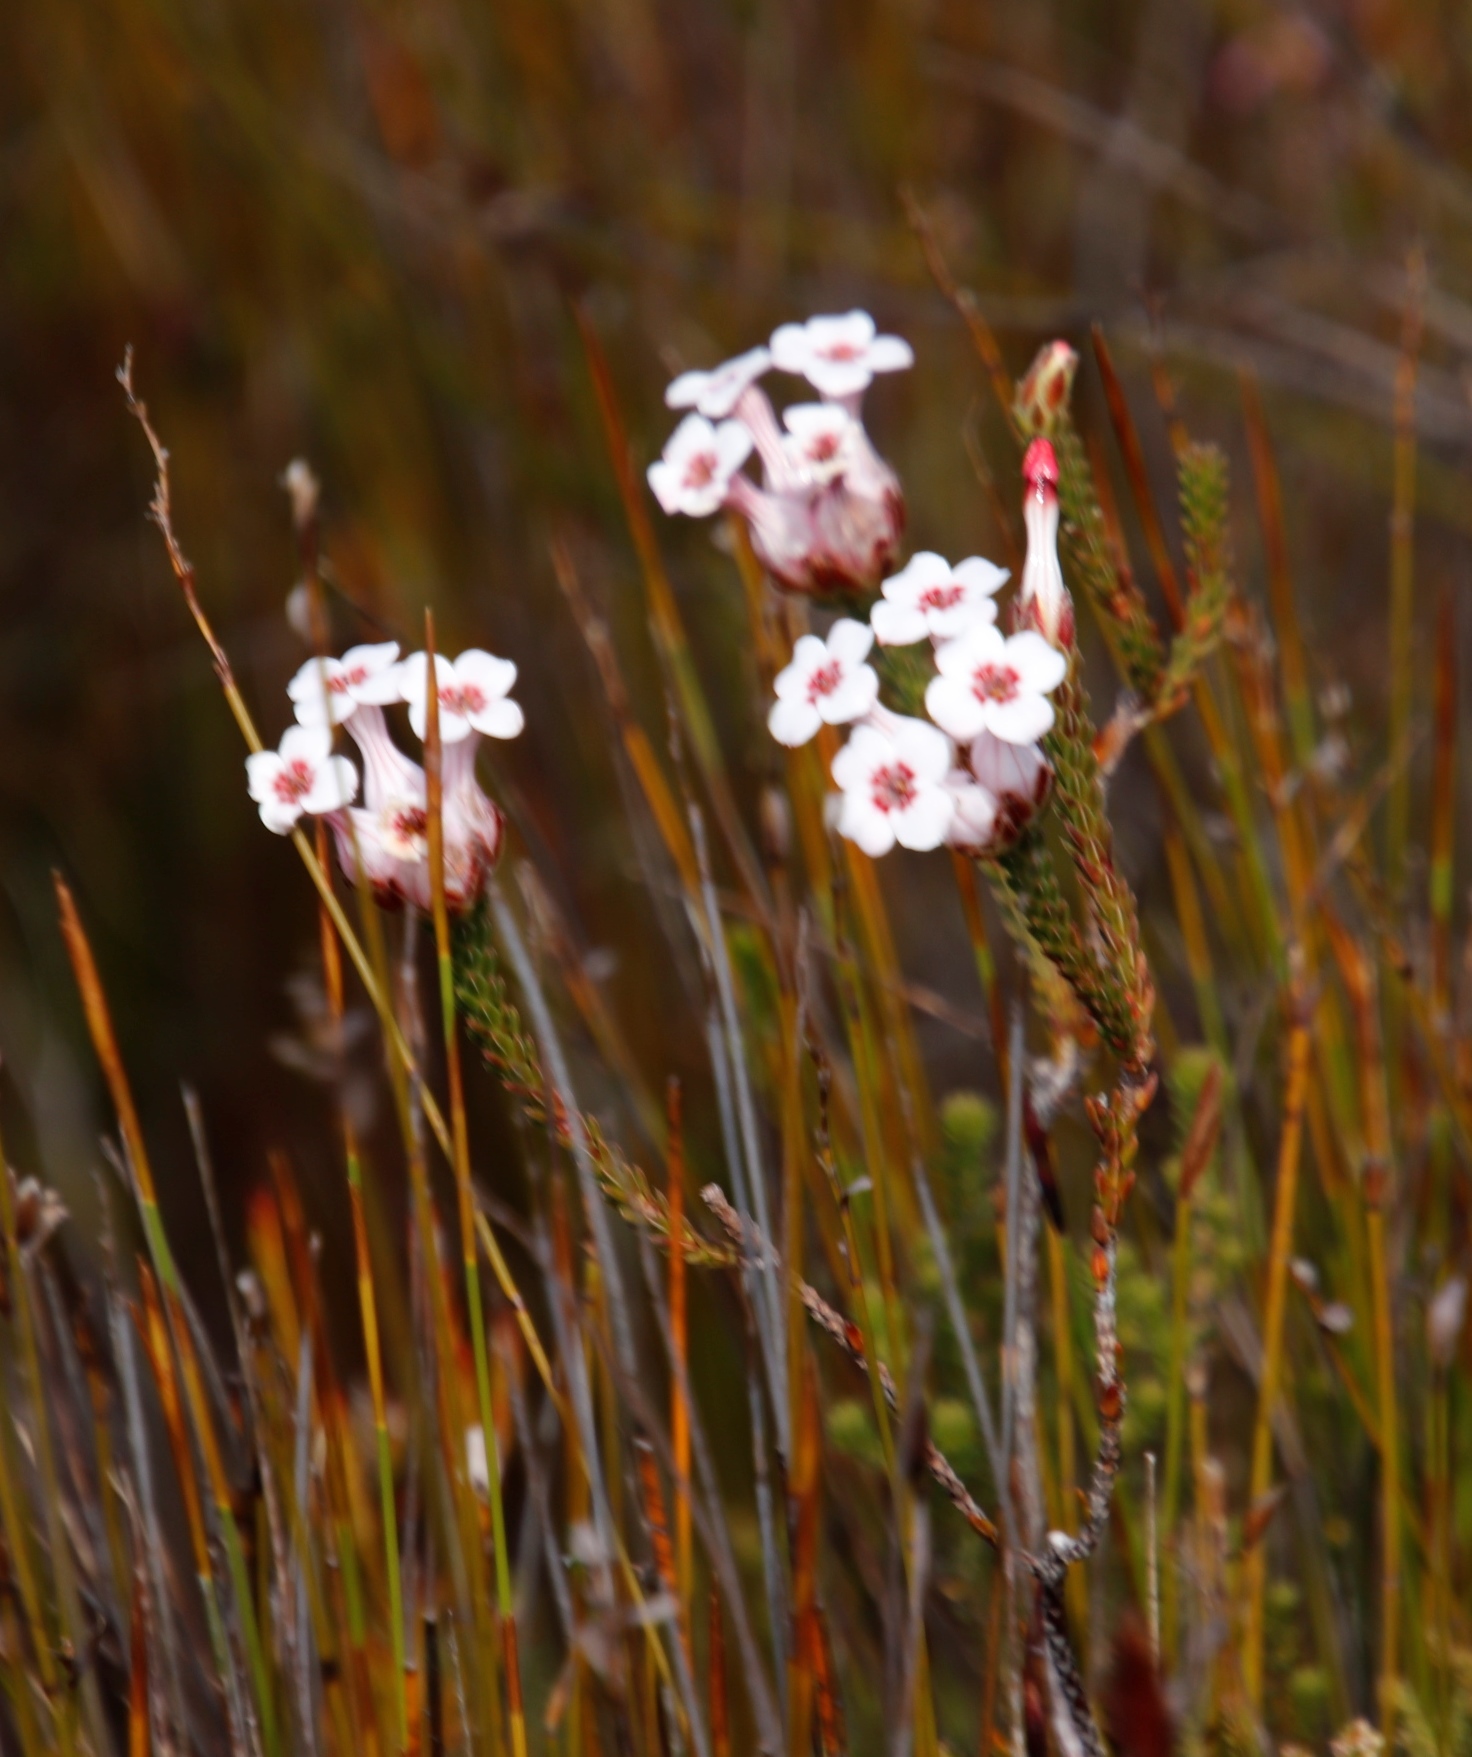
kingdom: Plantae
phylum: Tracheophyta
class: Magnoliopsida
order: Ericales
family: Ericaceae
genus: Erica
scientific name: Erica ampullacea
